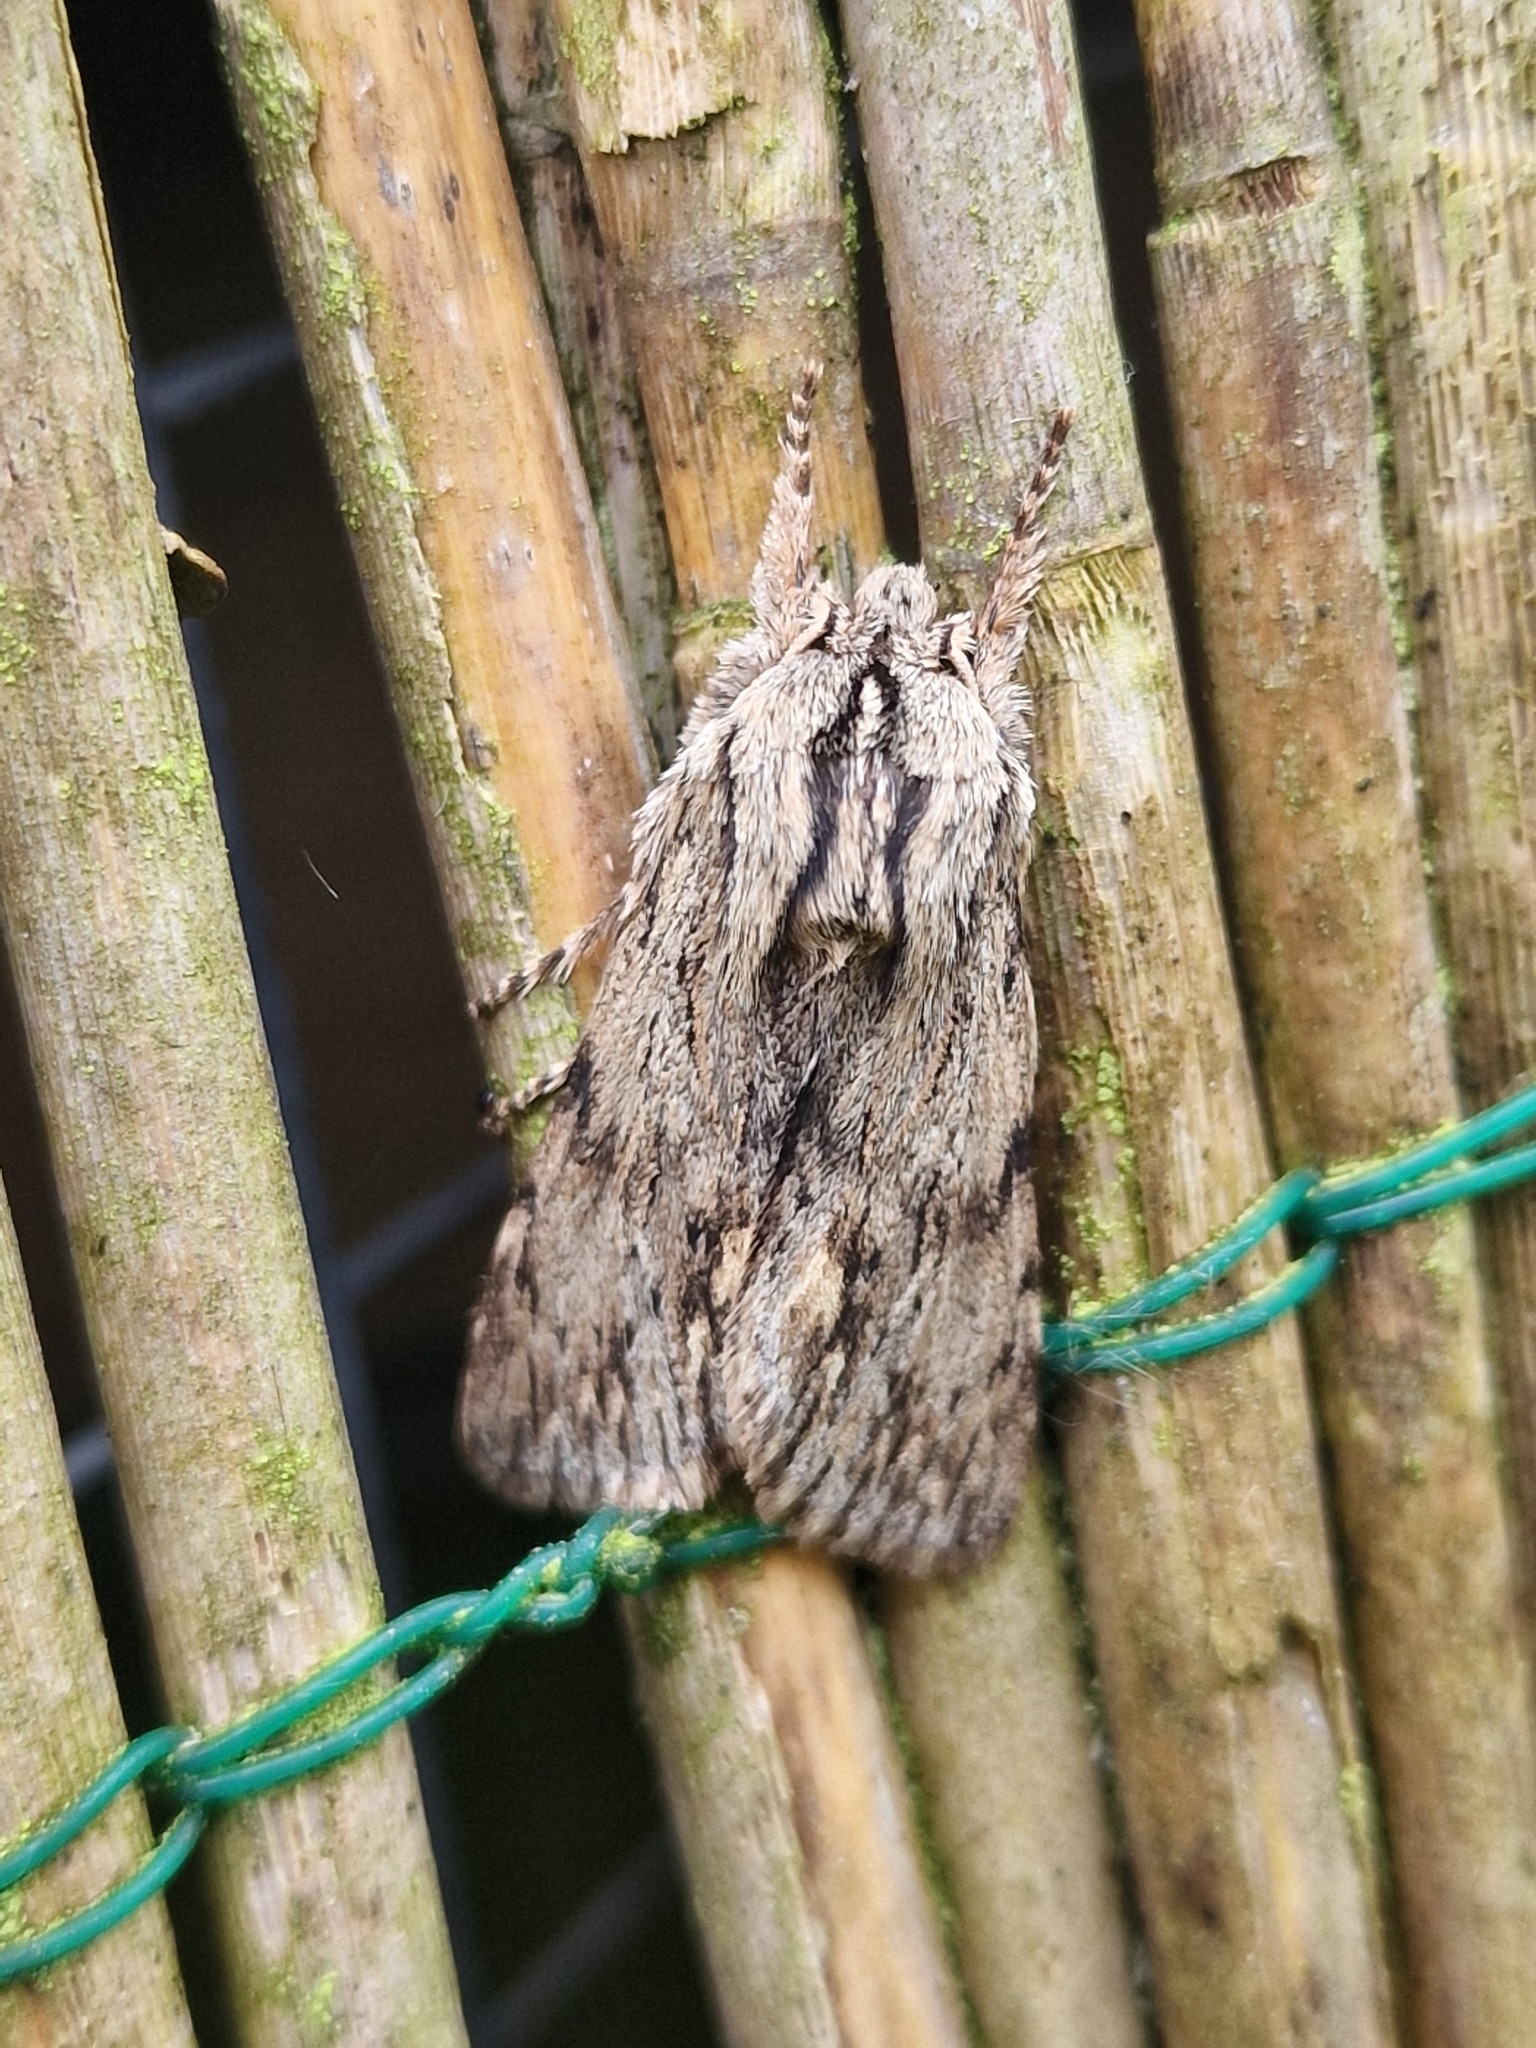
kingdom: Animalia
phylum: Arthropoda
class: Insecta
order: Lepidoptera
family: Noctuidae
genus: Asteroscopus
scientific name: Asteroscopus sphinx
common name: The sprawler
